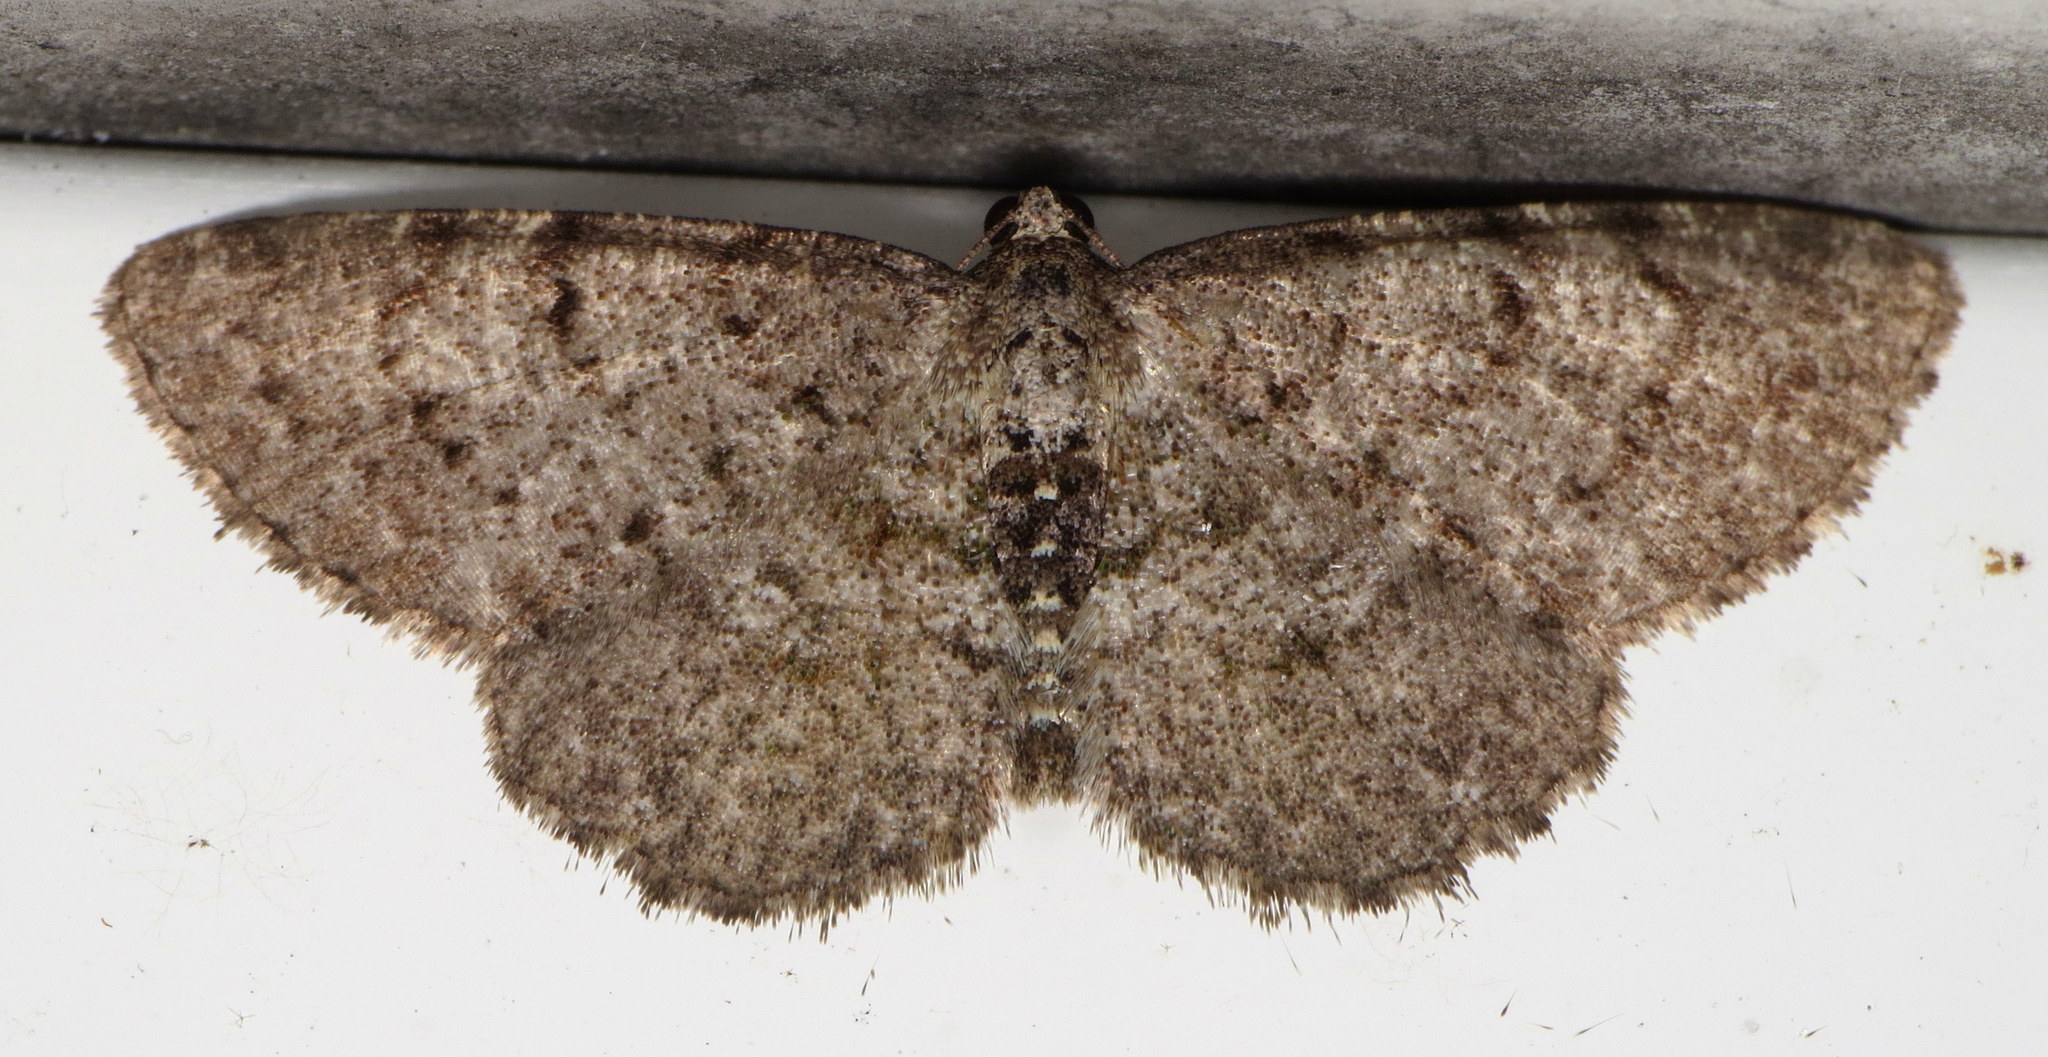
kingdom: Animalia
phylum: Arthropoda
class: Insecta
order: Lepidoptera
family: Geometridae
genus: Aethalura
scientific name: Aethalura intertexta
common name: Four-barred gray
